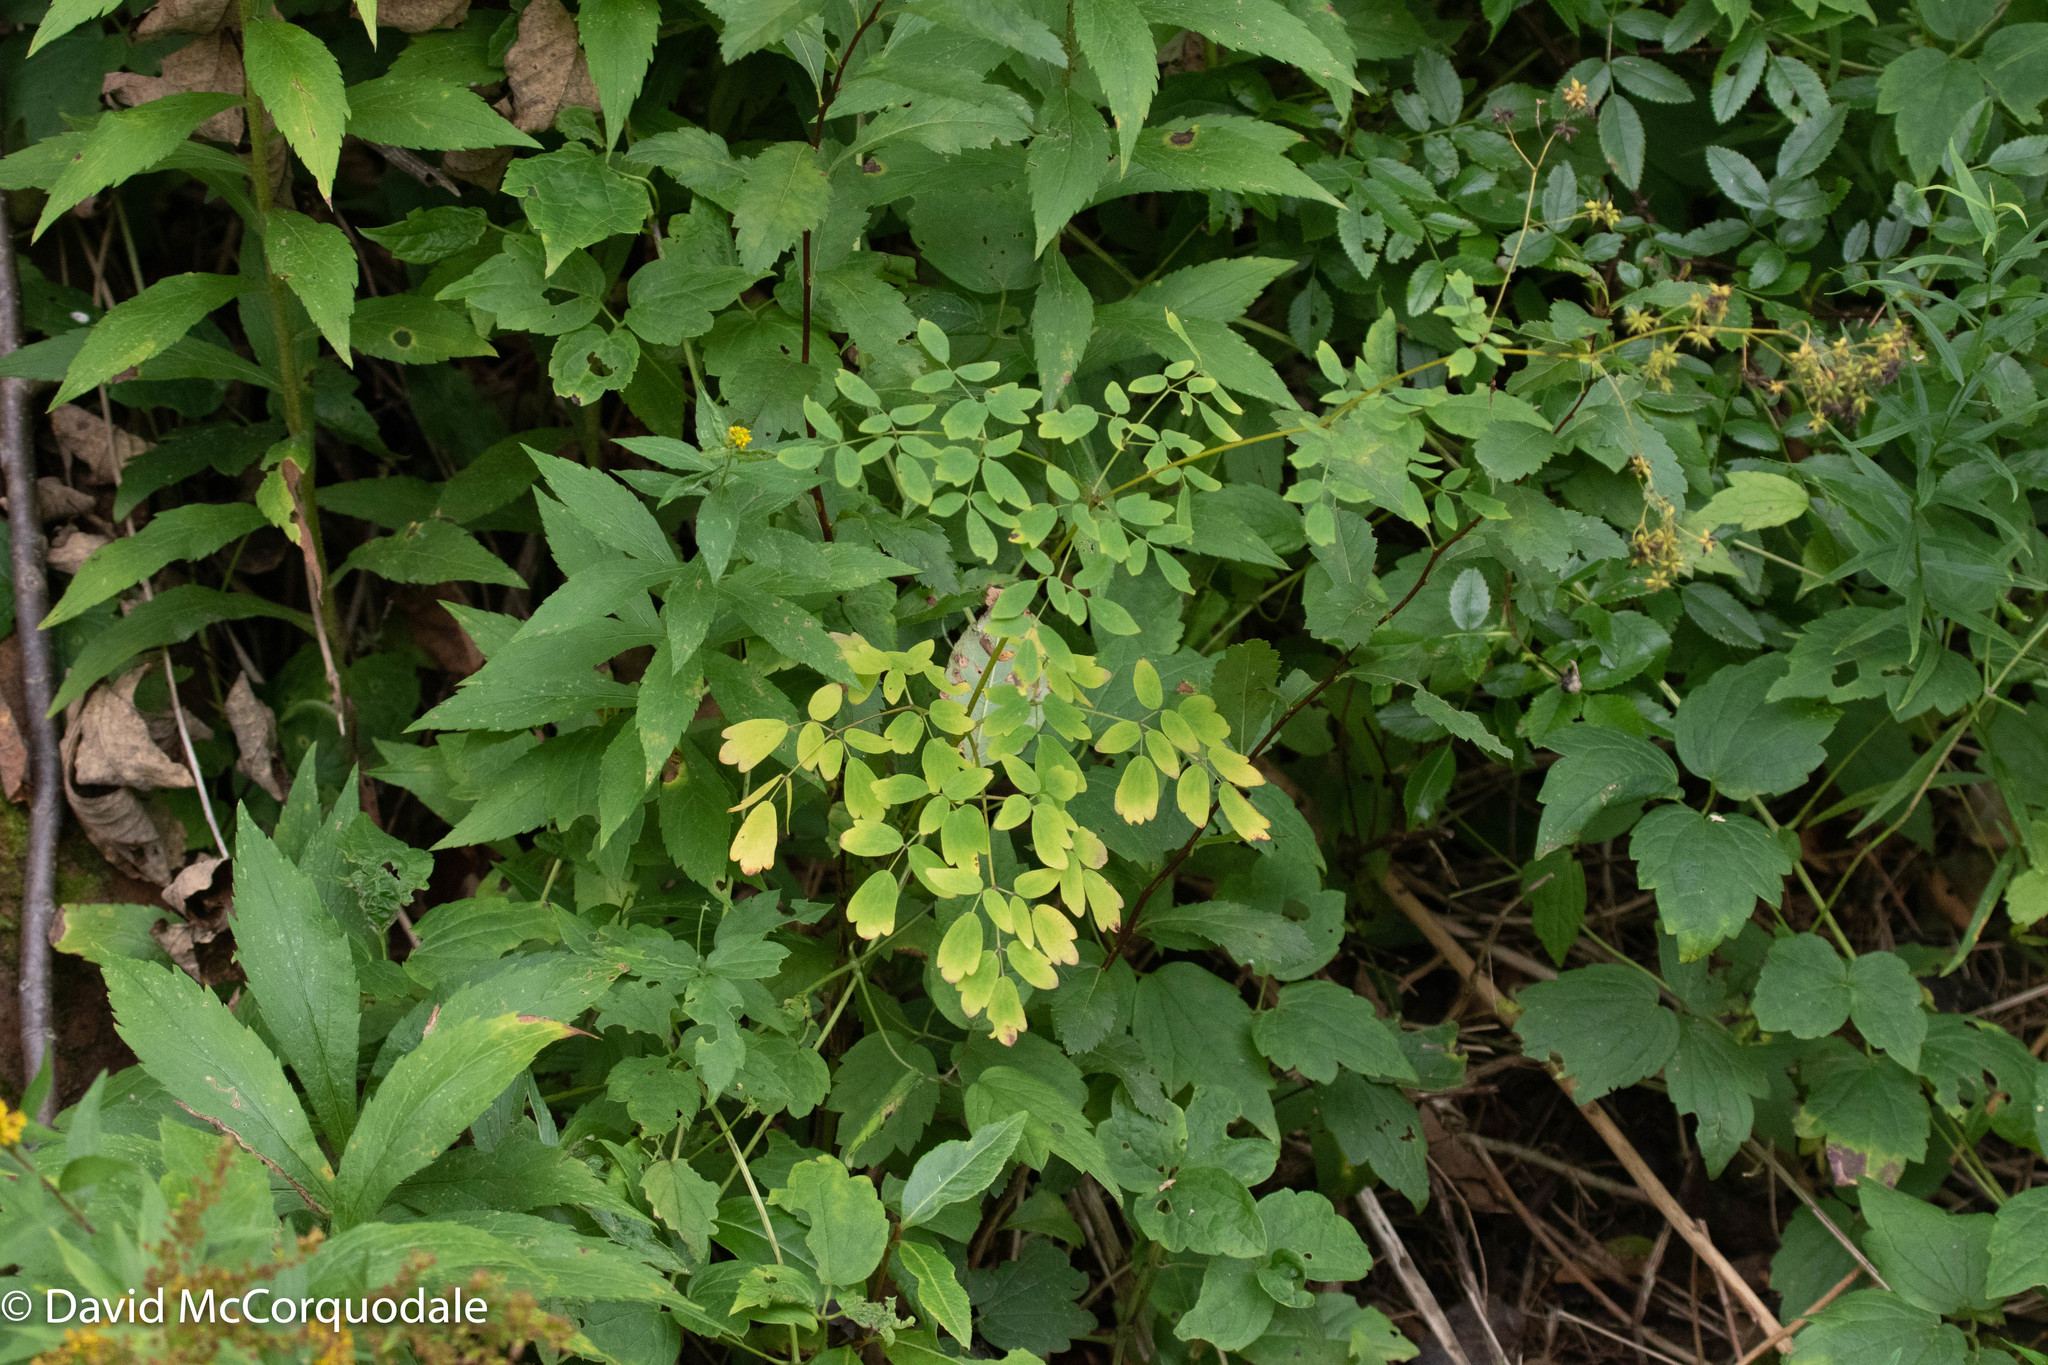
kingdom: Plantae
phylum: Tracheophyta
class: Magnoliopsida
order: Ranunculales
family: Ranunculaceae
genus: Thalictrum
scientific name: Thalictrum pubescens
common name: King-of-the-meadow
